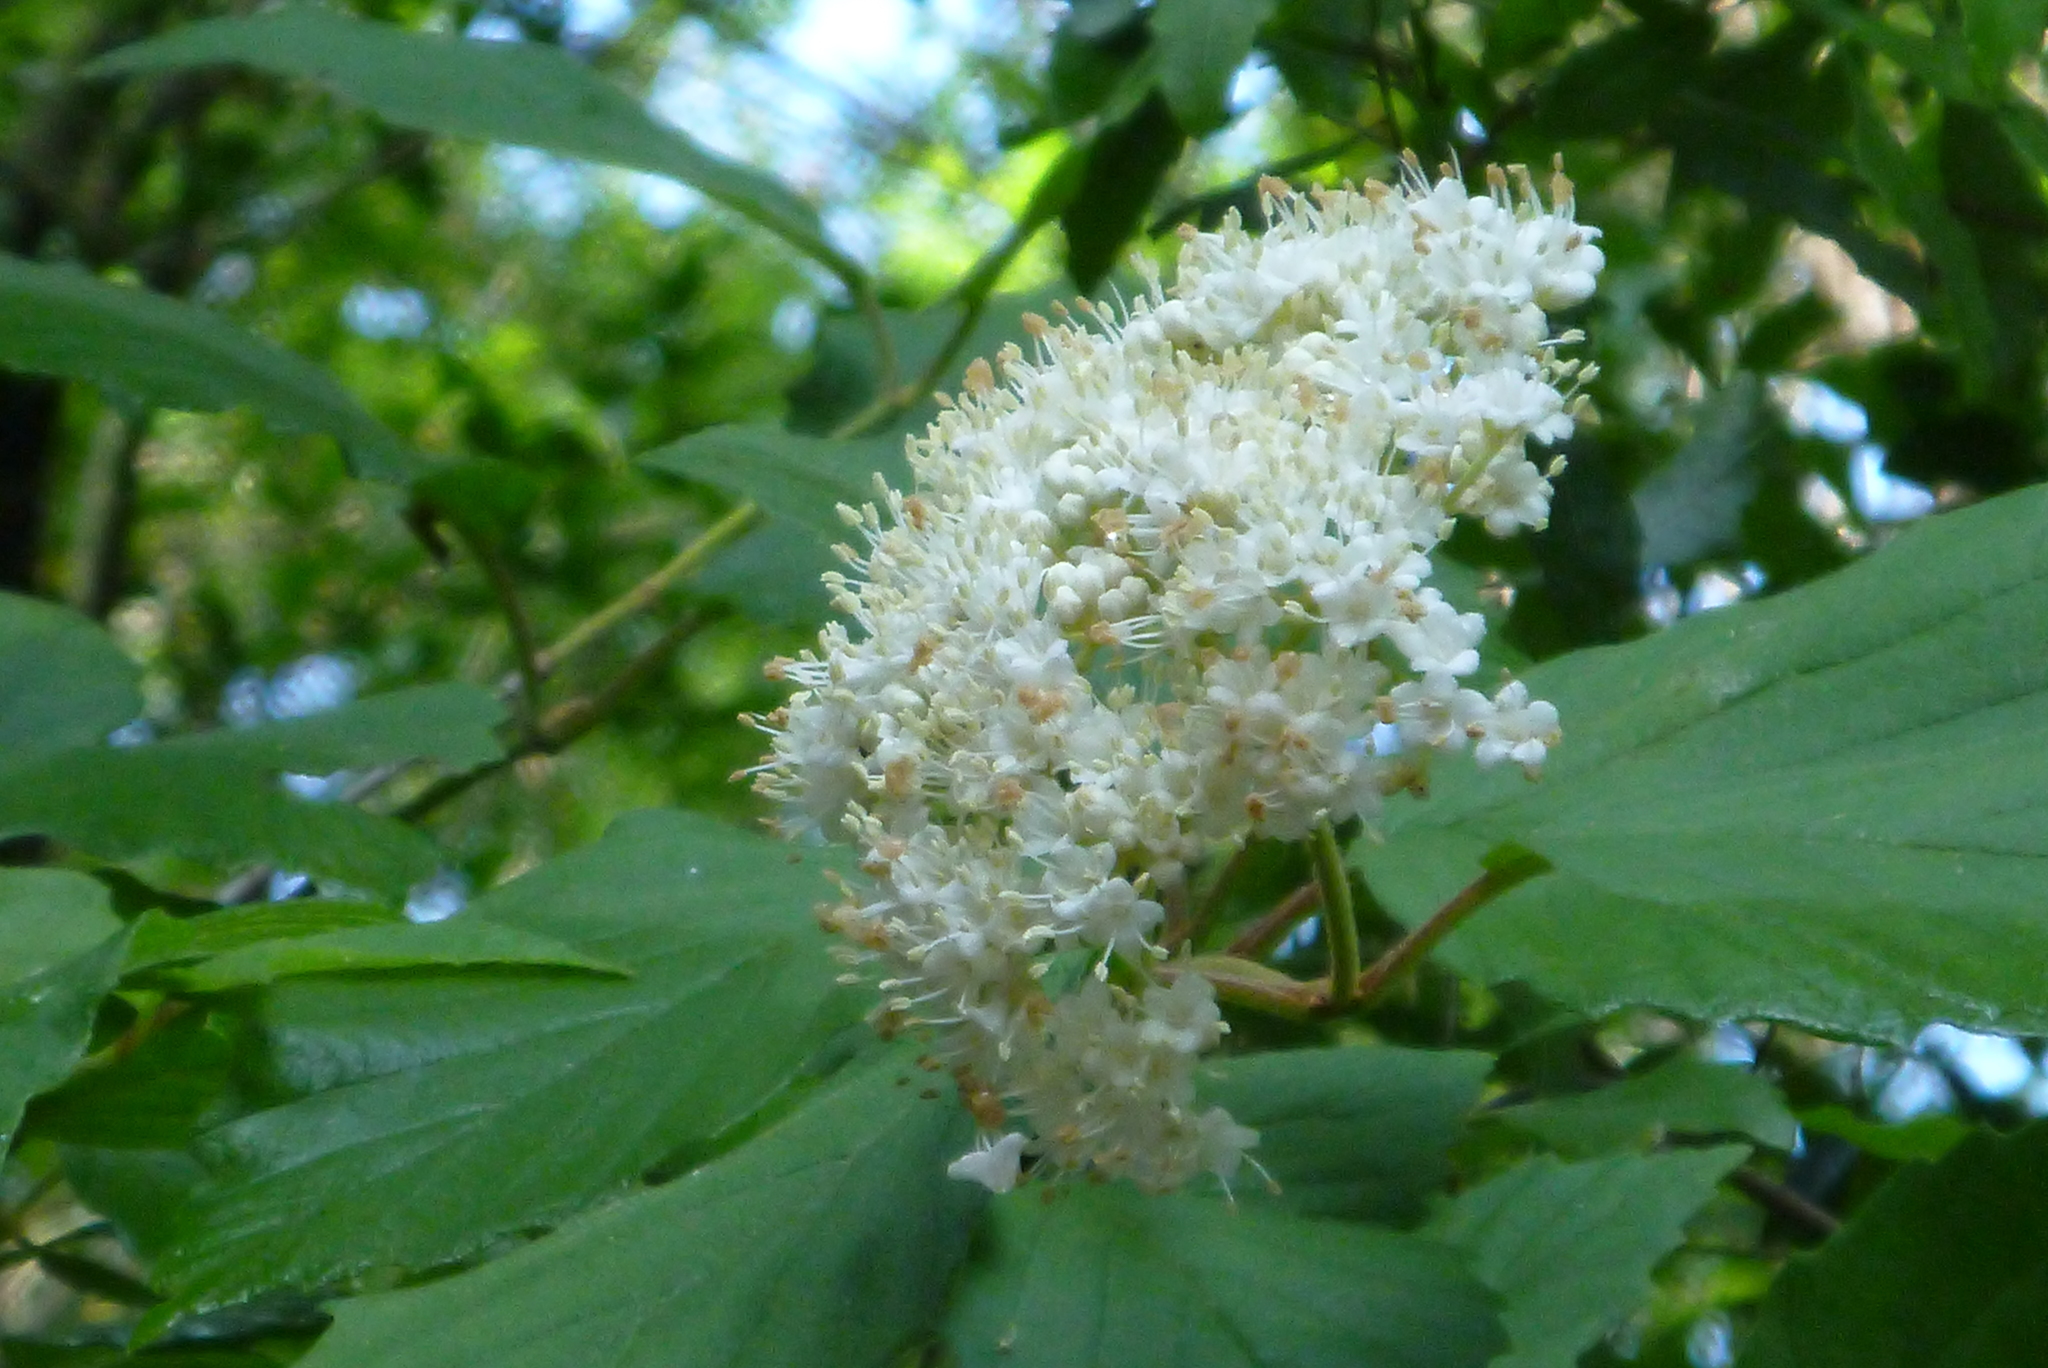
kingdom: Plantae
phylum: Tracheophyta
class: Magnoliopsida
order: Dipsacales
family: Viburnaceae
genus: Viburnum
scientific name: Viburnum scabrellum
